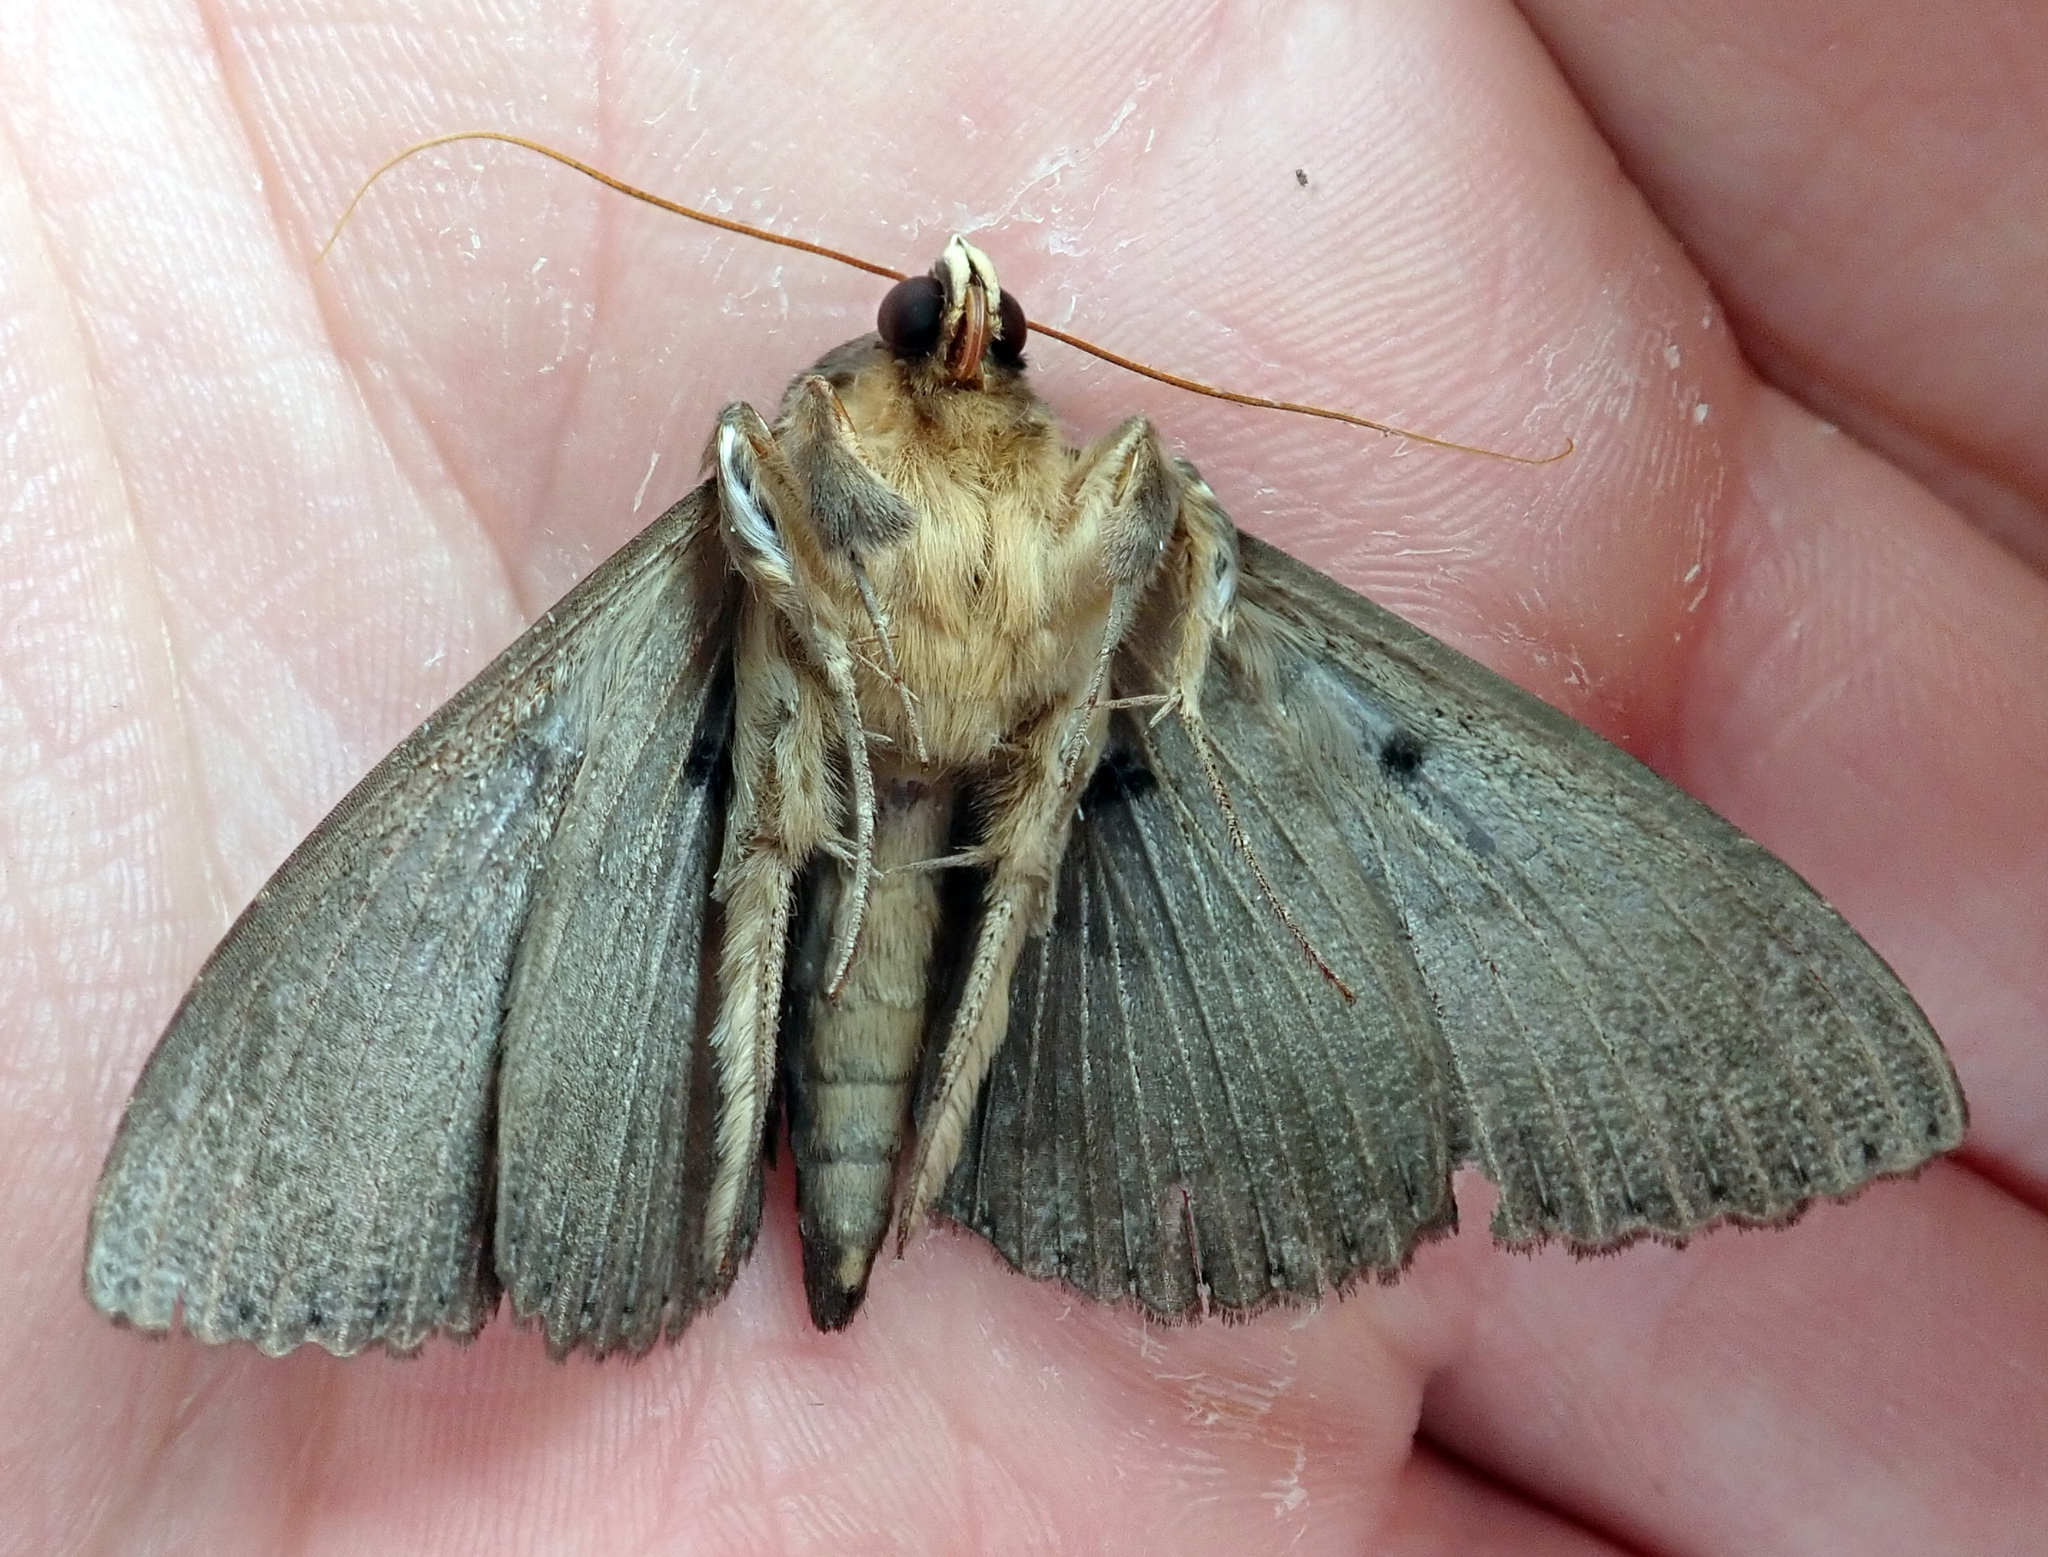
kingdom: Animalia
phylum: Arthropoda
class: Insecta
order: Lepidoptera
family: Erebidae
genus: Dasypodia
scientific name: Dasypodia cymatodes
